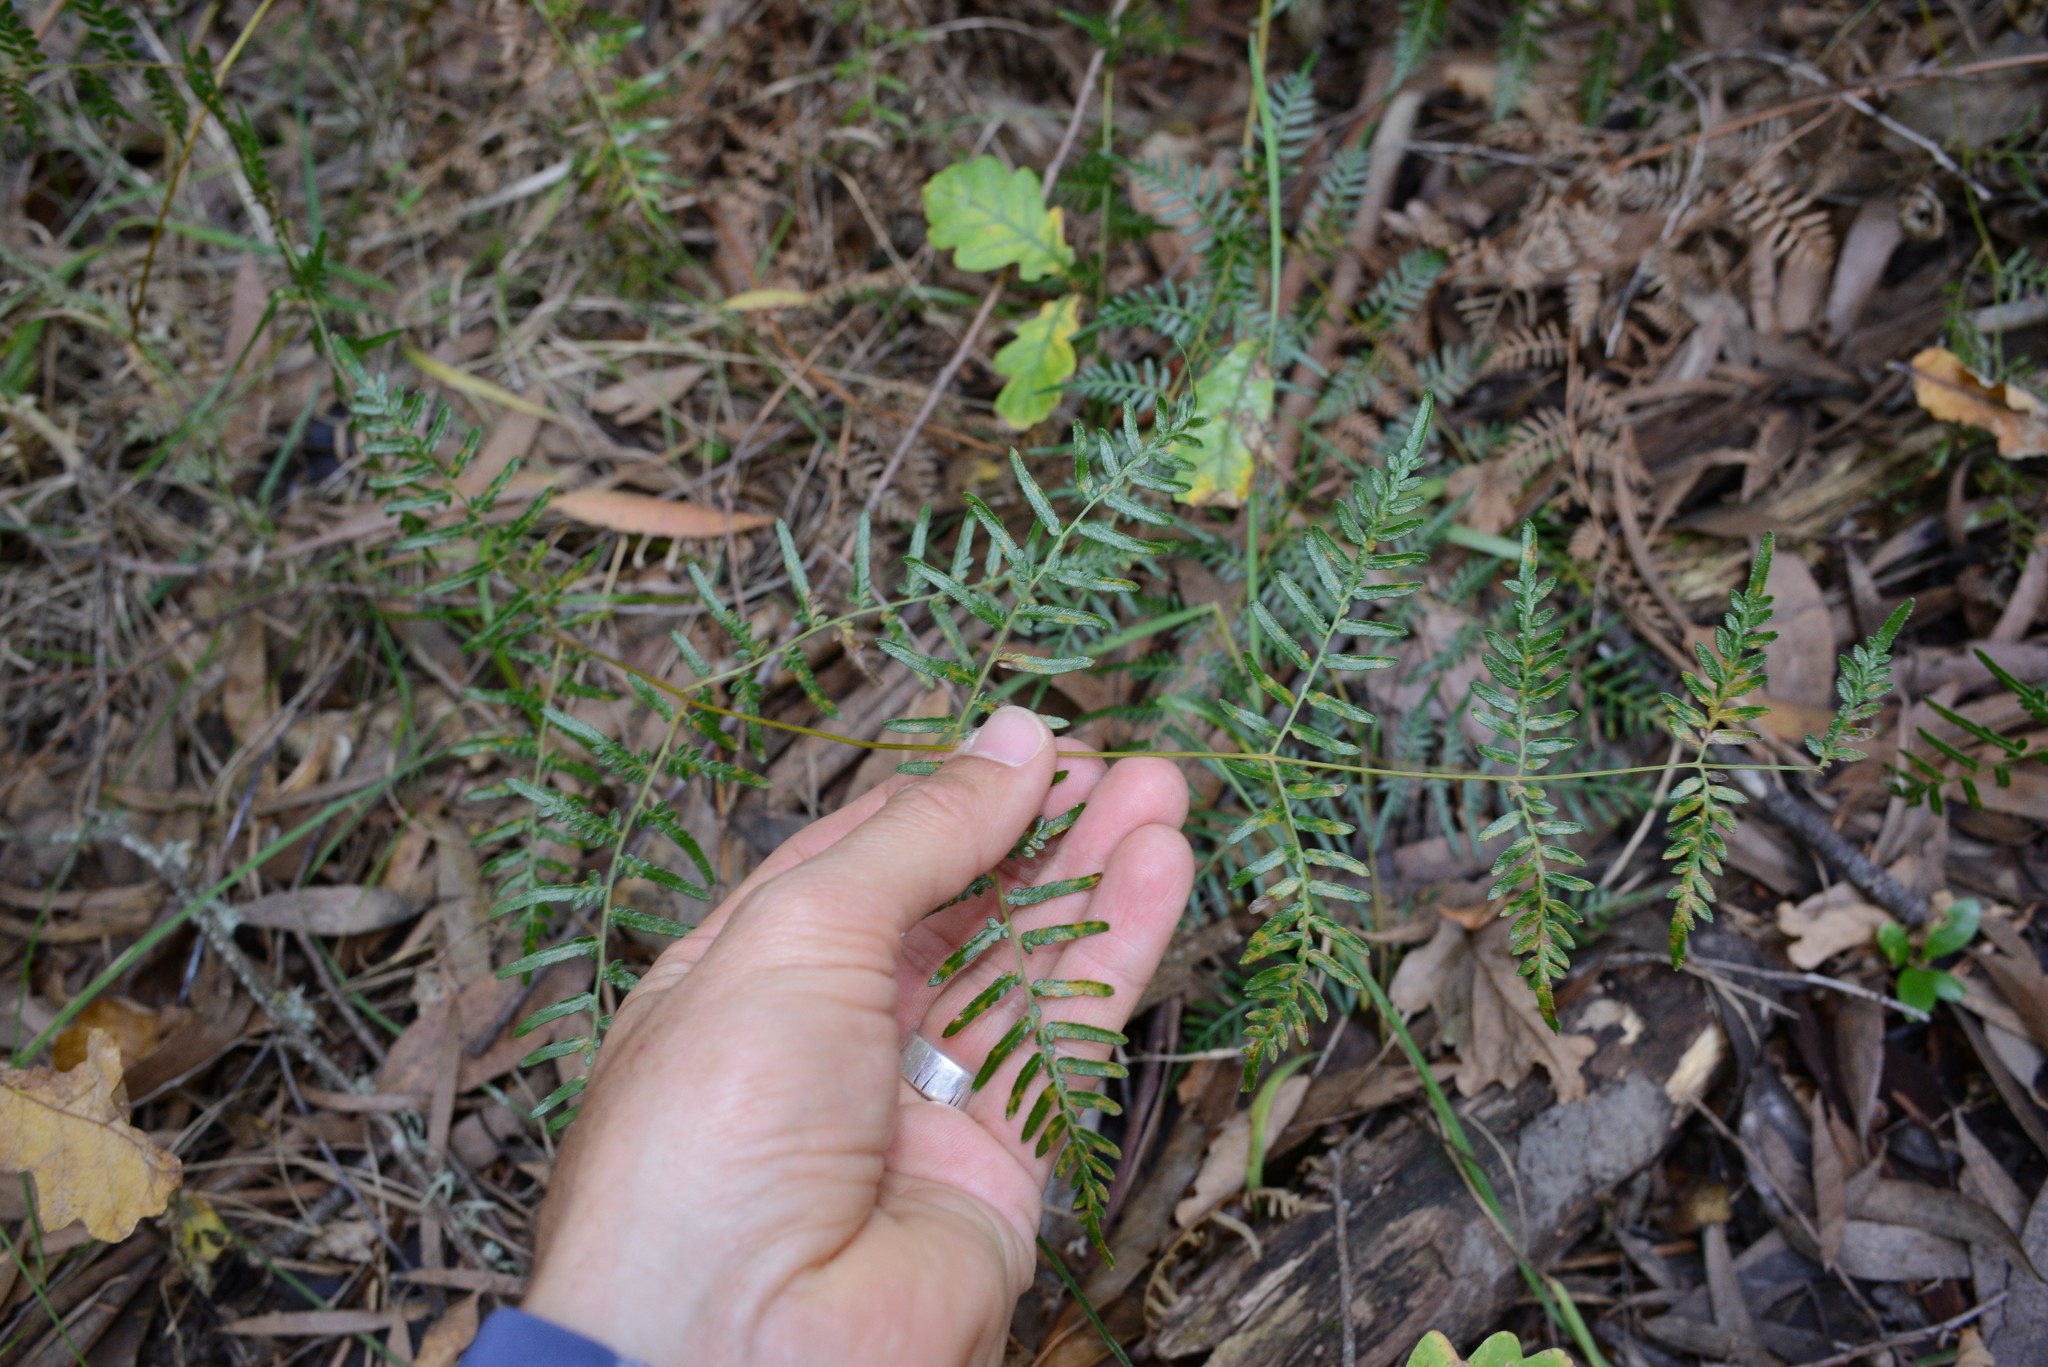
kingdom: Plantae
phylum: Tracheophyta
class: Polypodiopsida
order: Polypodiales
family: Dennstaedtiaceae
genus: Pteridium
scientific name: Pteridium esculentum
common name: Bracken fern
